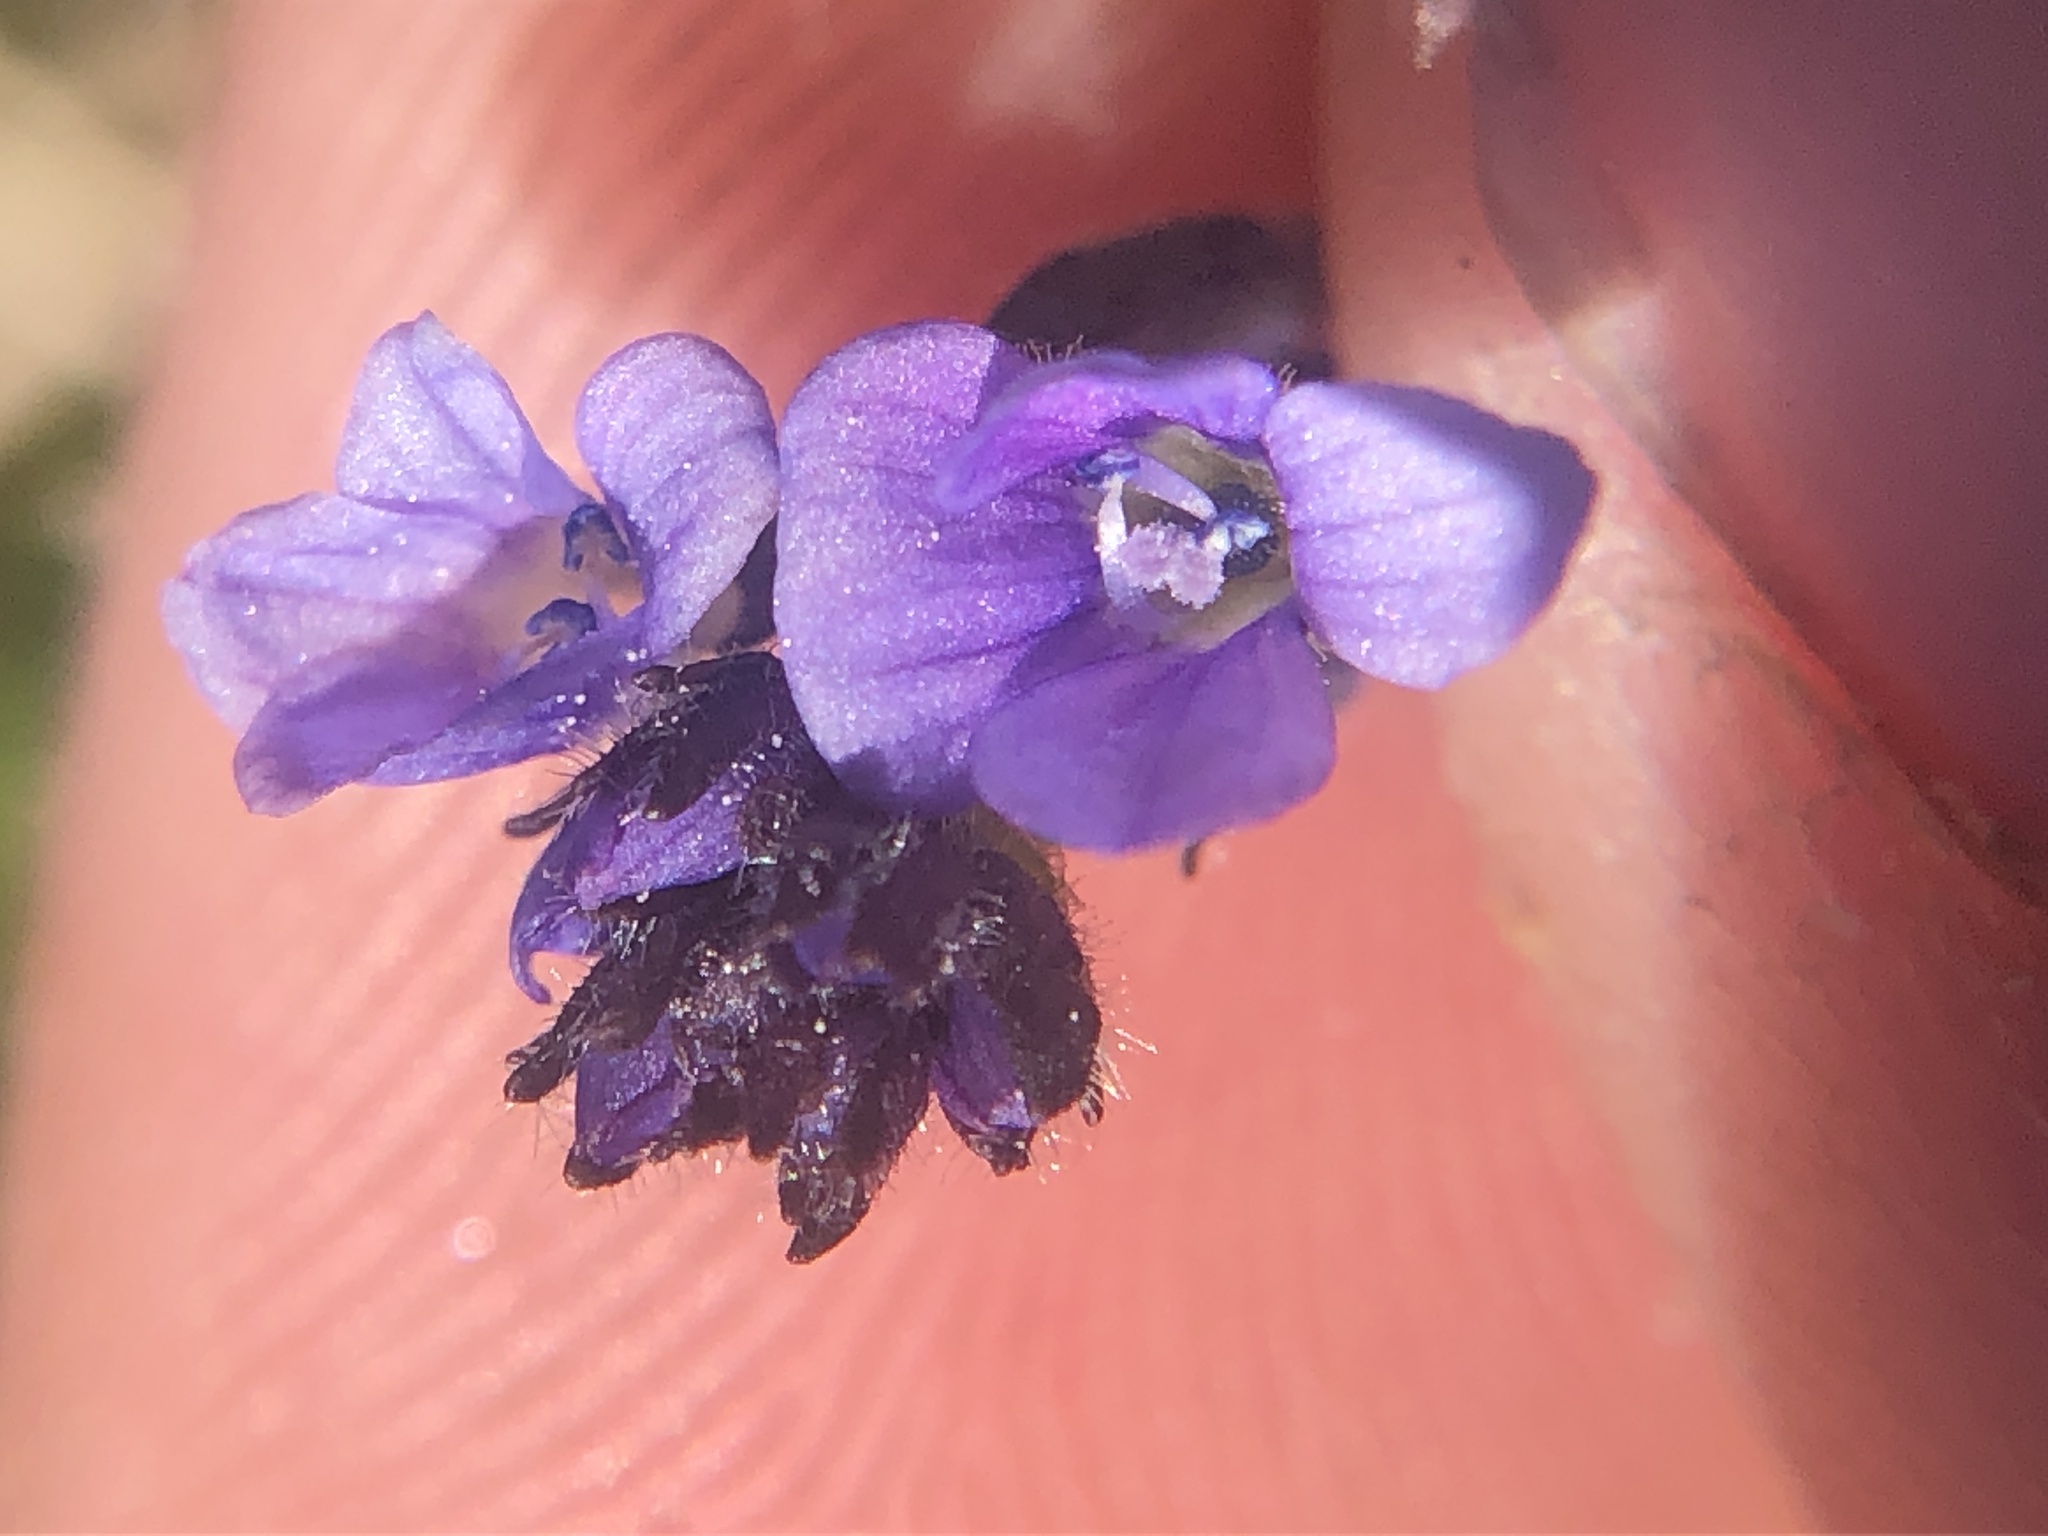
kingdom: Plantae
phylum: Tracheophyta
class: Magnoliopsida
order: Lamiales
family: Plantaginaceae
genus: Veronica
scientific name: Veronica wormskjoldii
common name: American alpine speedwell
